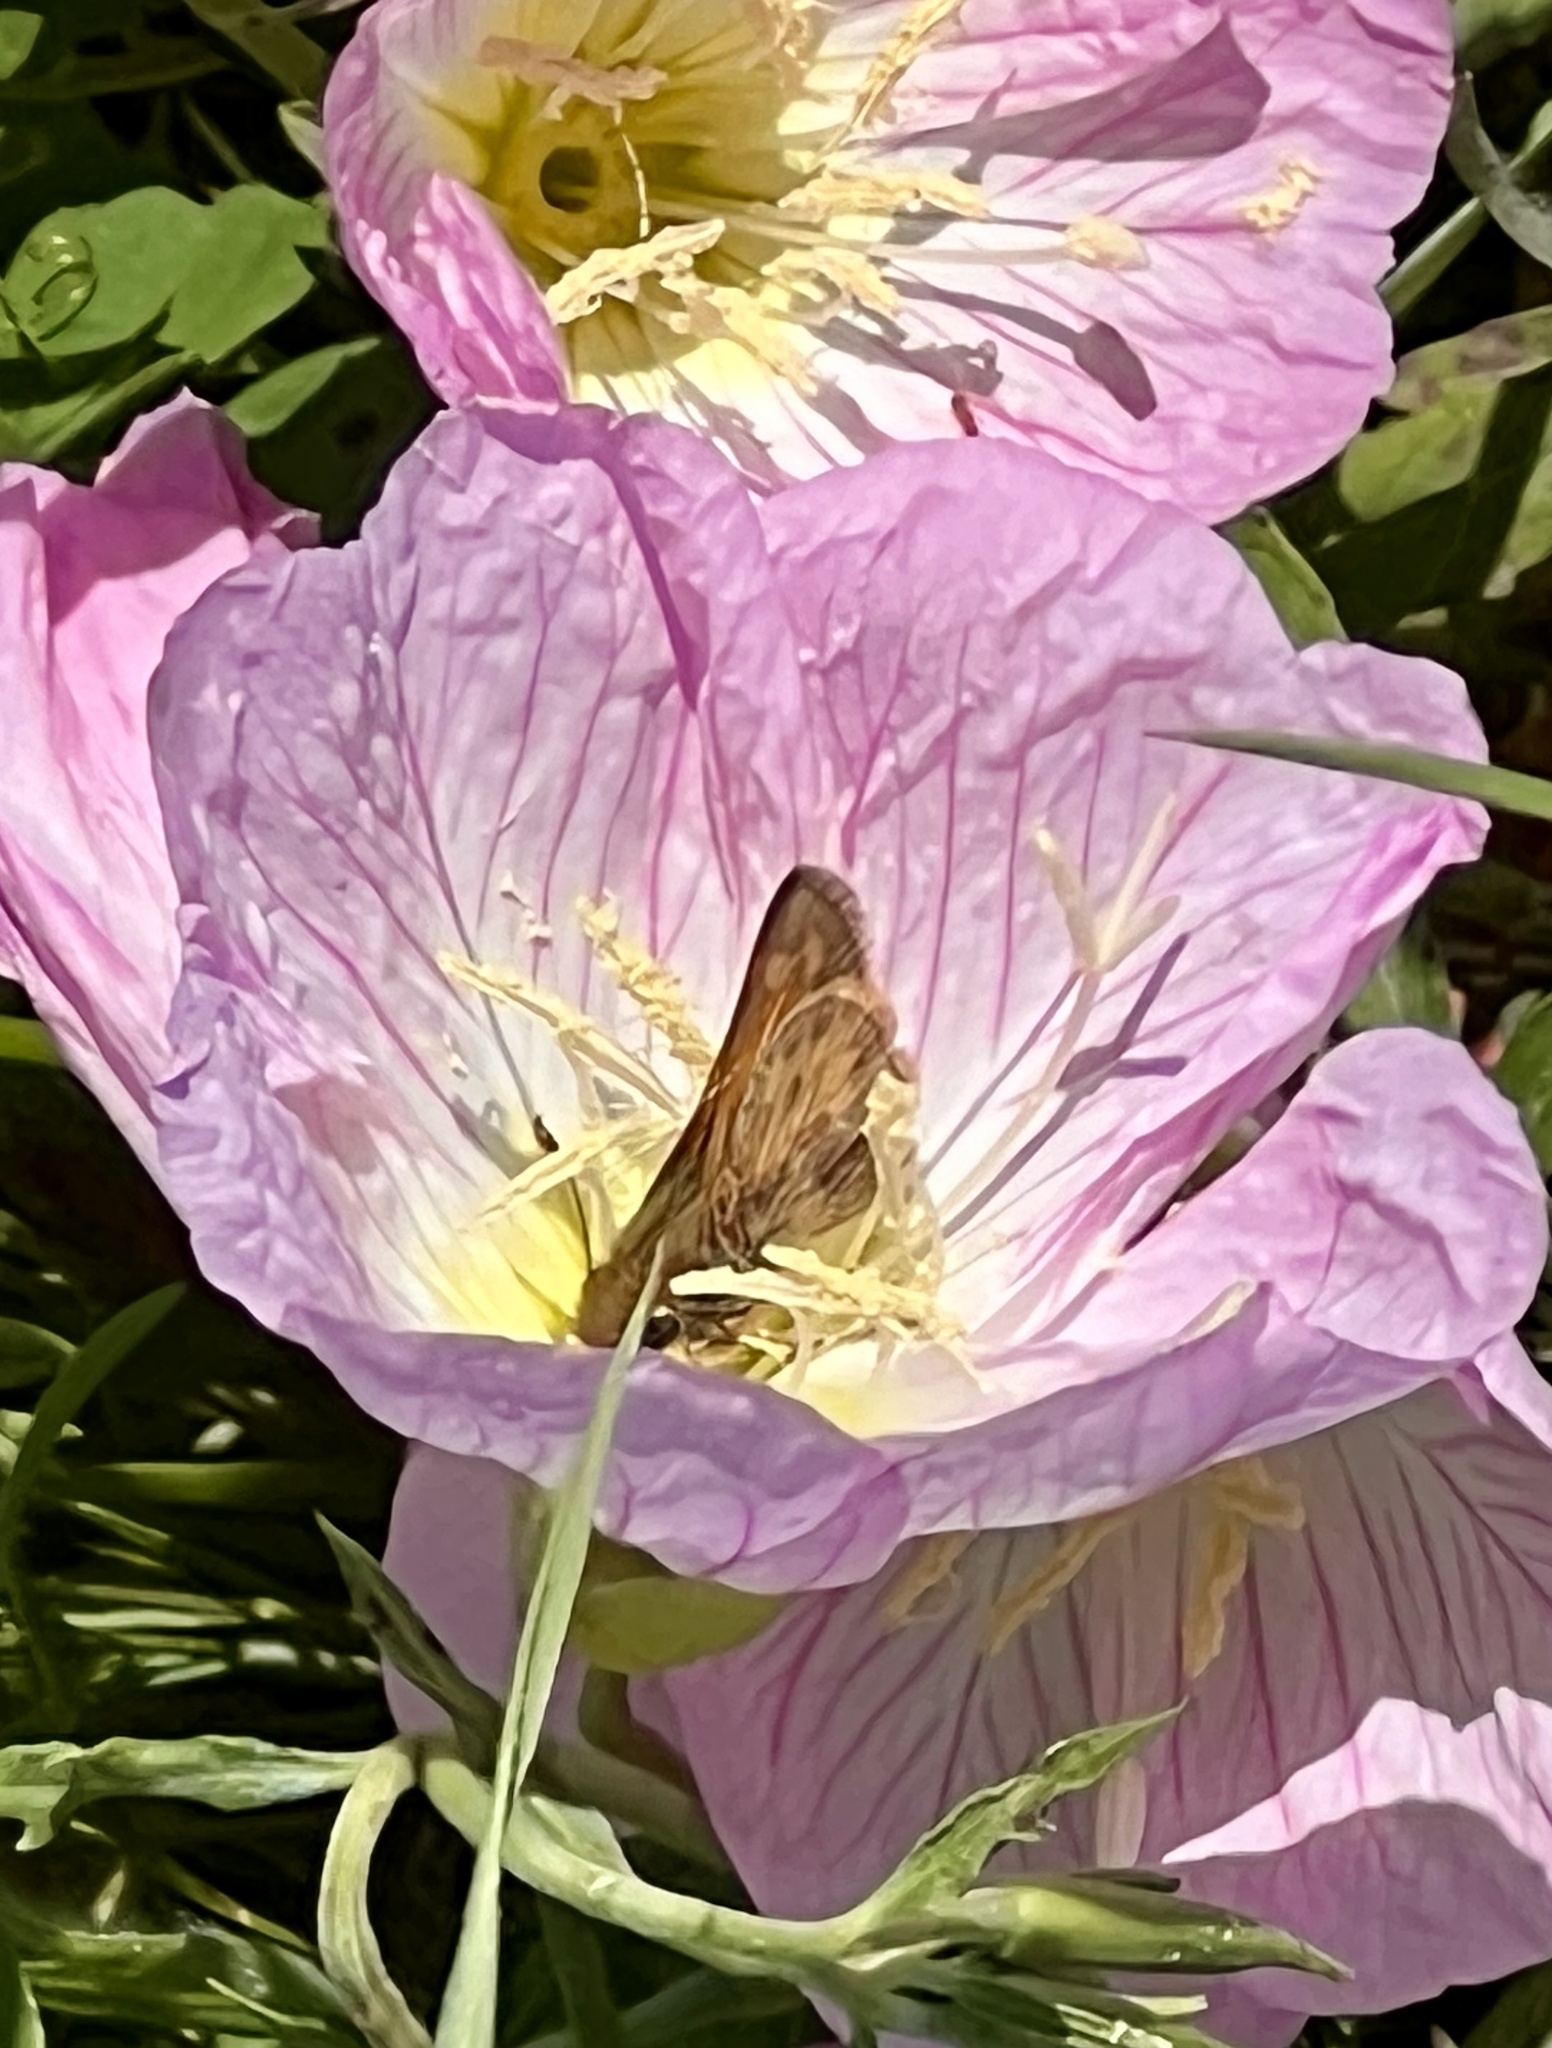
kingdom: Animalia
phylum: Arthropoda
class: Insecta
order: Lepidoptera
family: Hesperiidae
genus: Atalopedes
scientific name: Atalopedes
